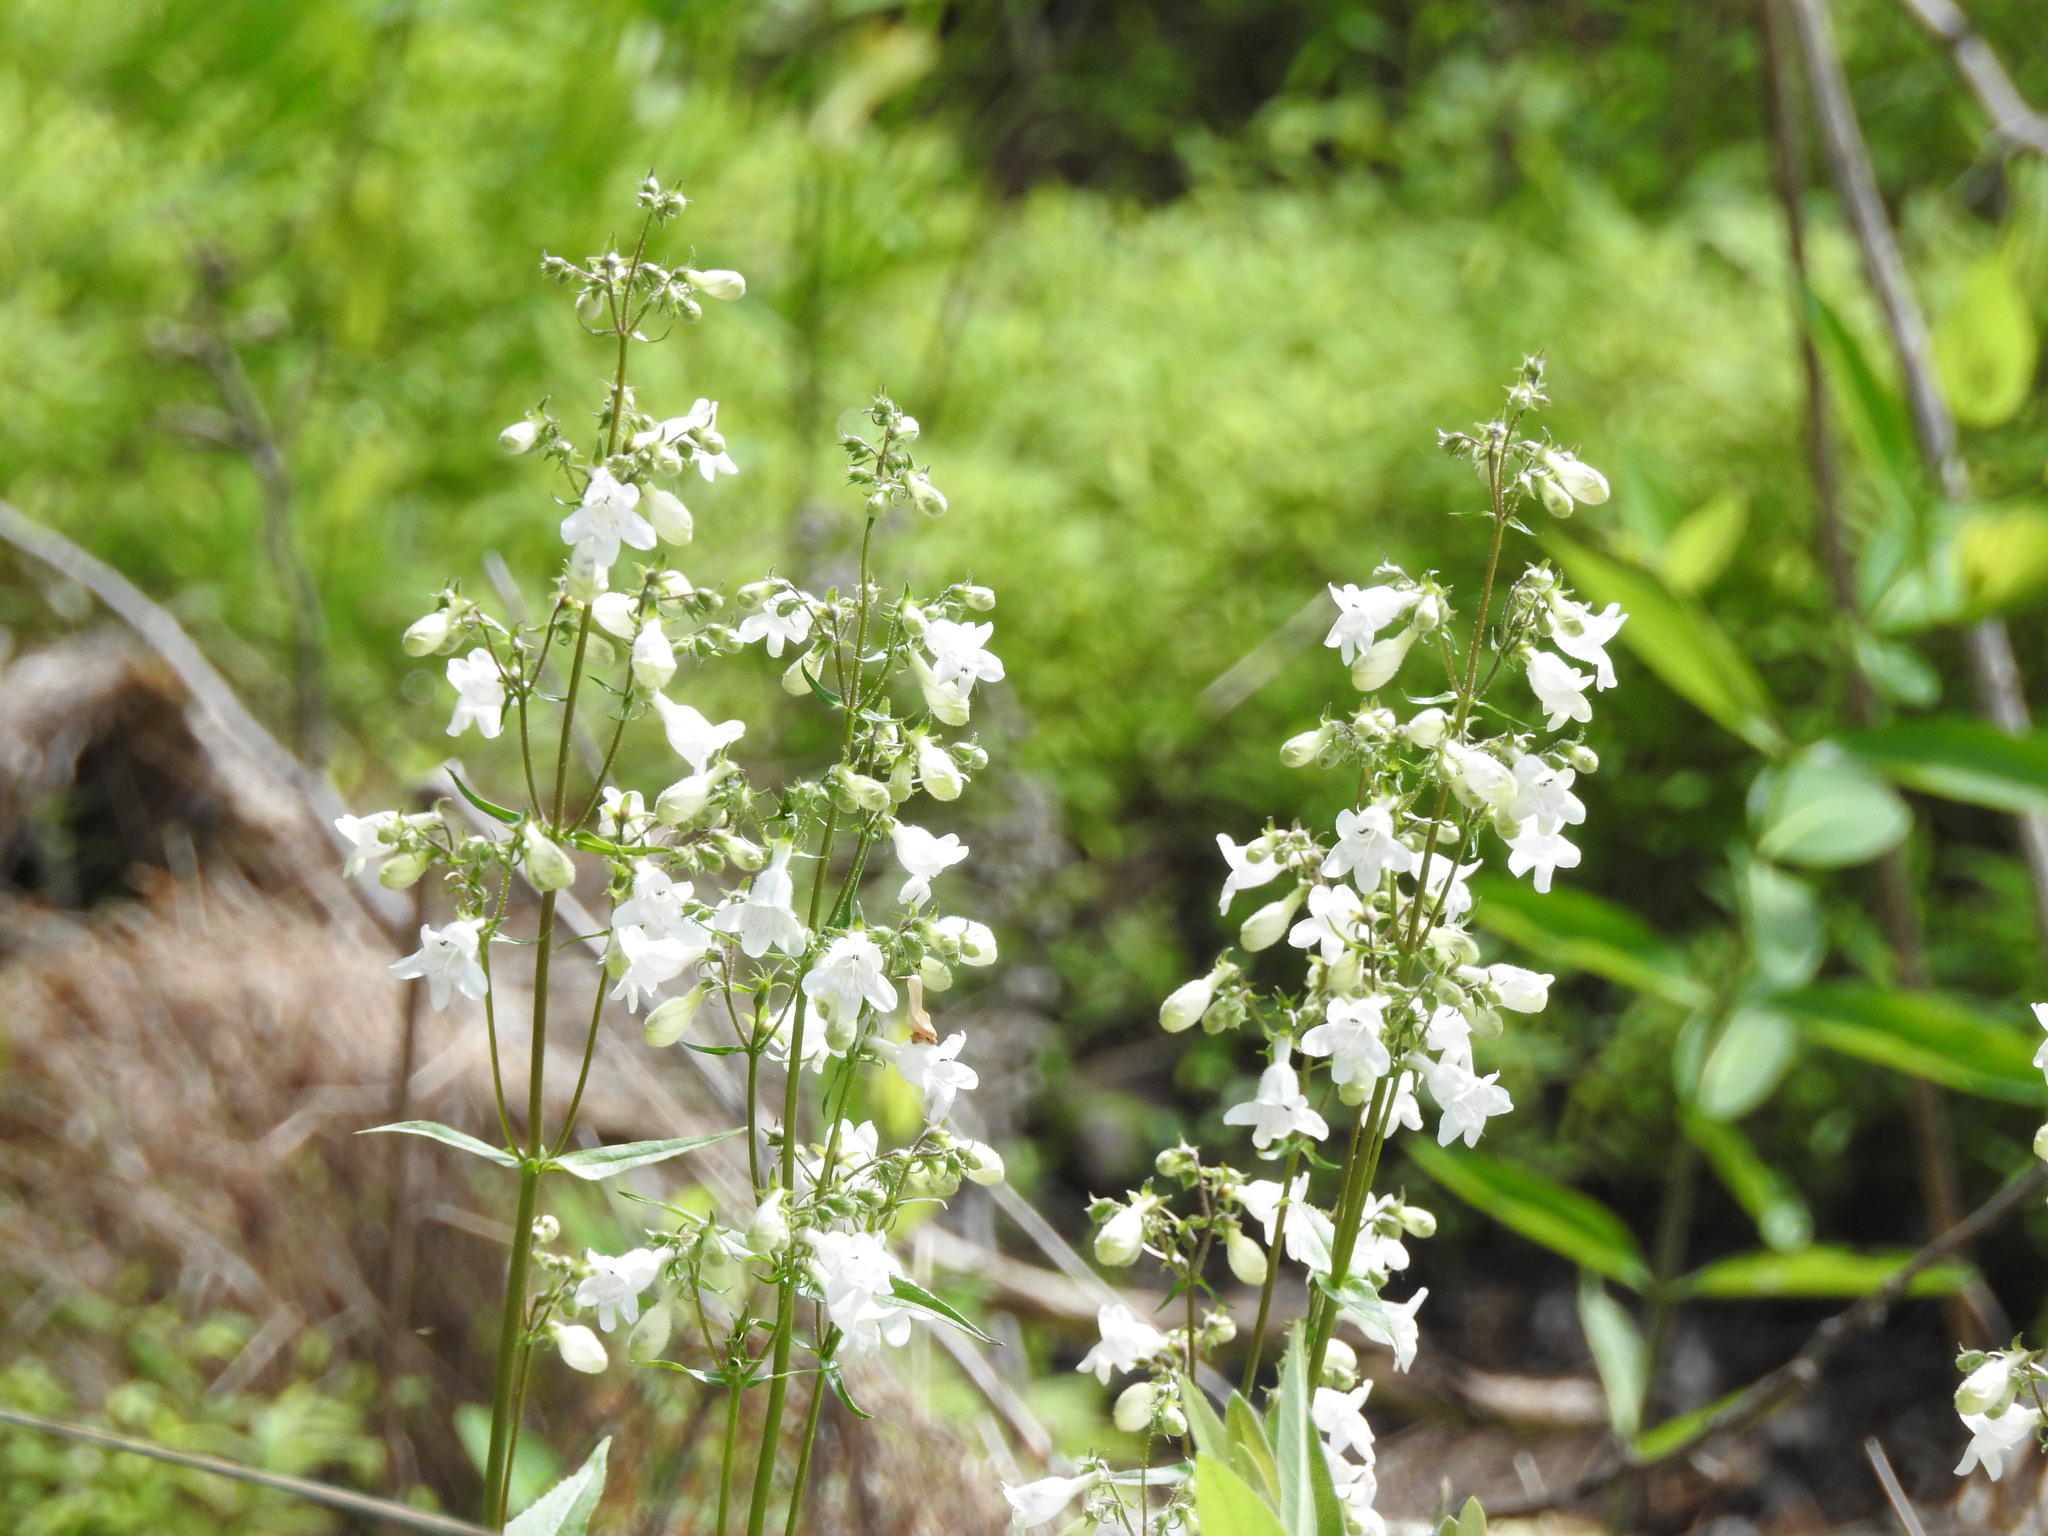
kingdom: Plantae
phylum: Tracheophyta
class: Magnoliopsida
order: Lamiales
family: Plantaginaceae
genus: Penstemon
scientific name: Penstemon digitalis
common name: Foxglove beardtongue
